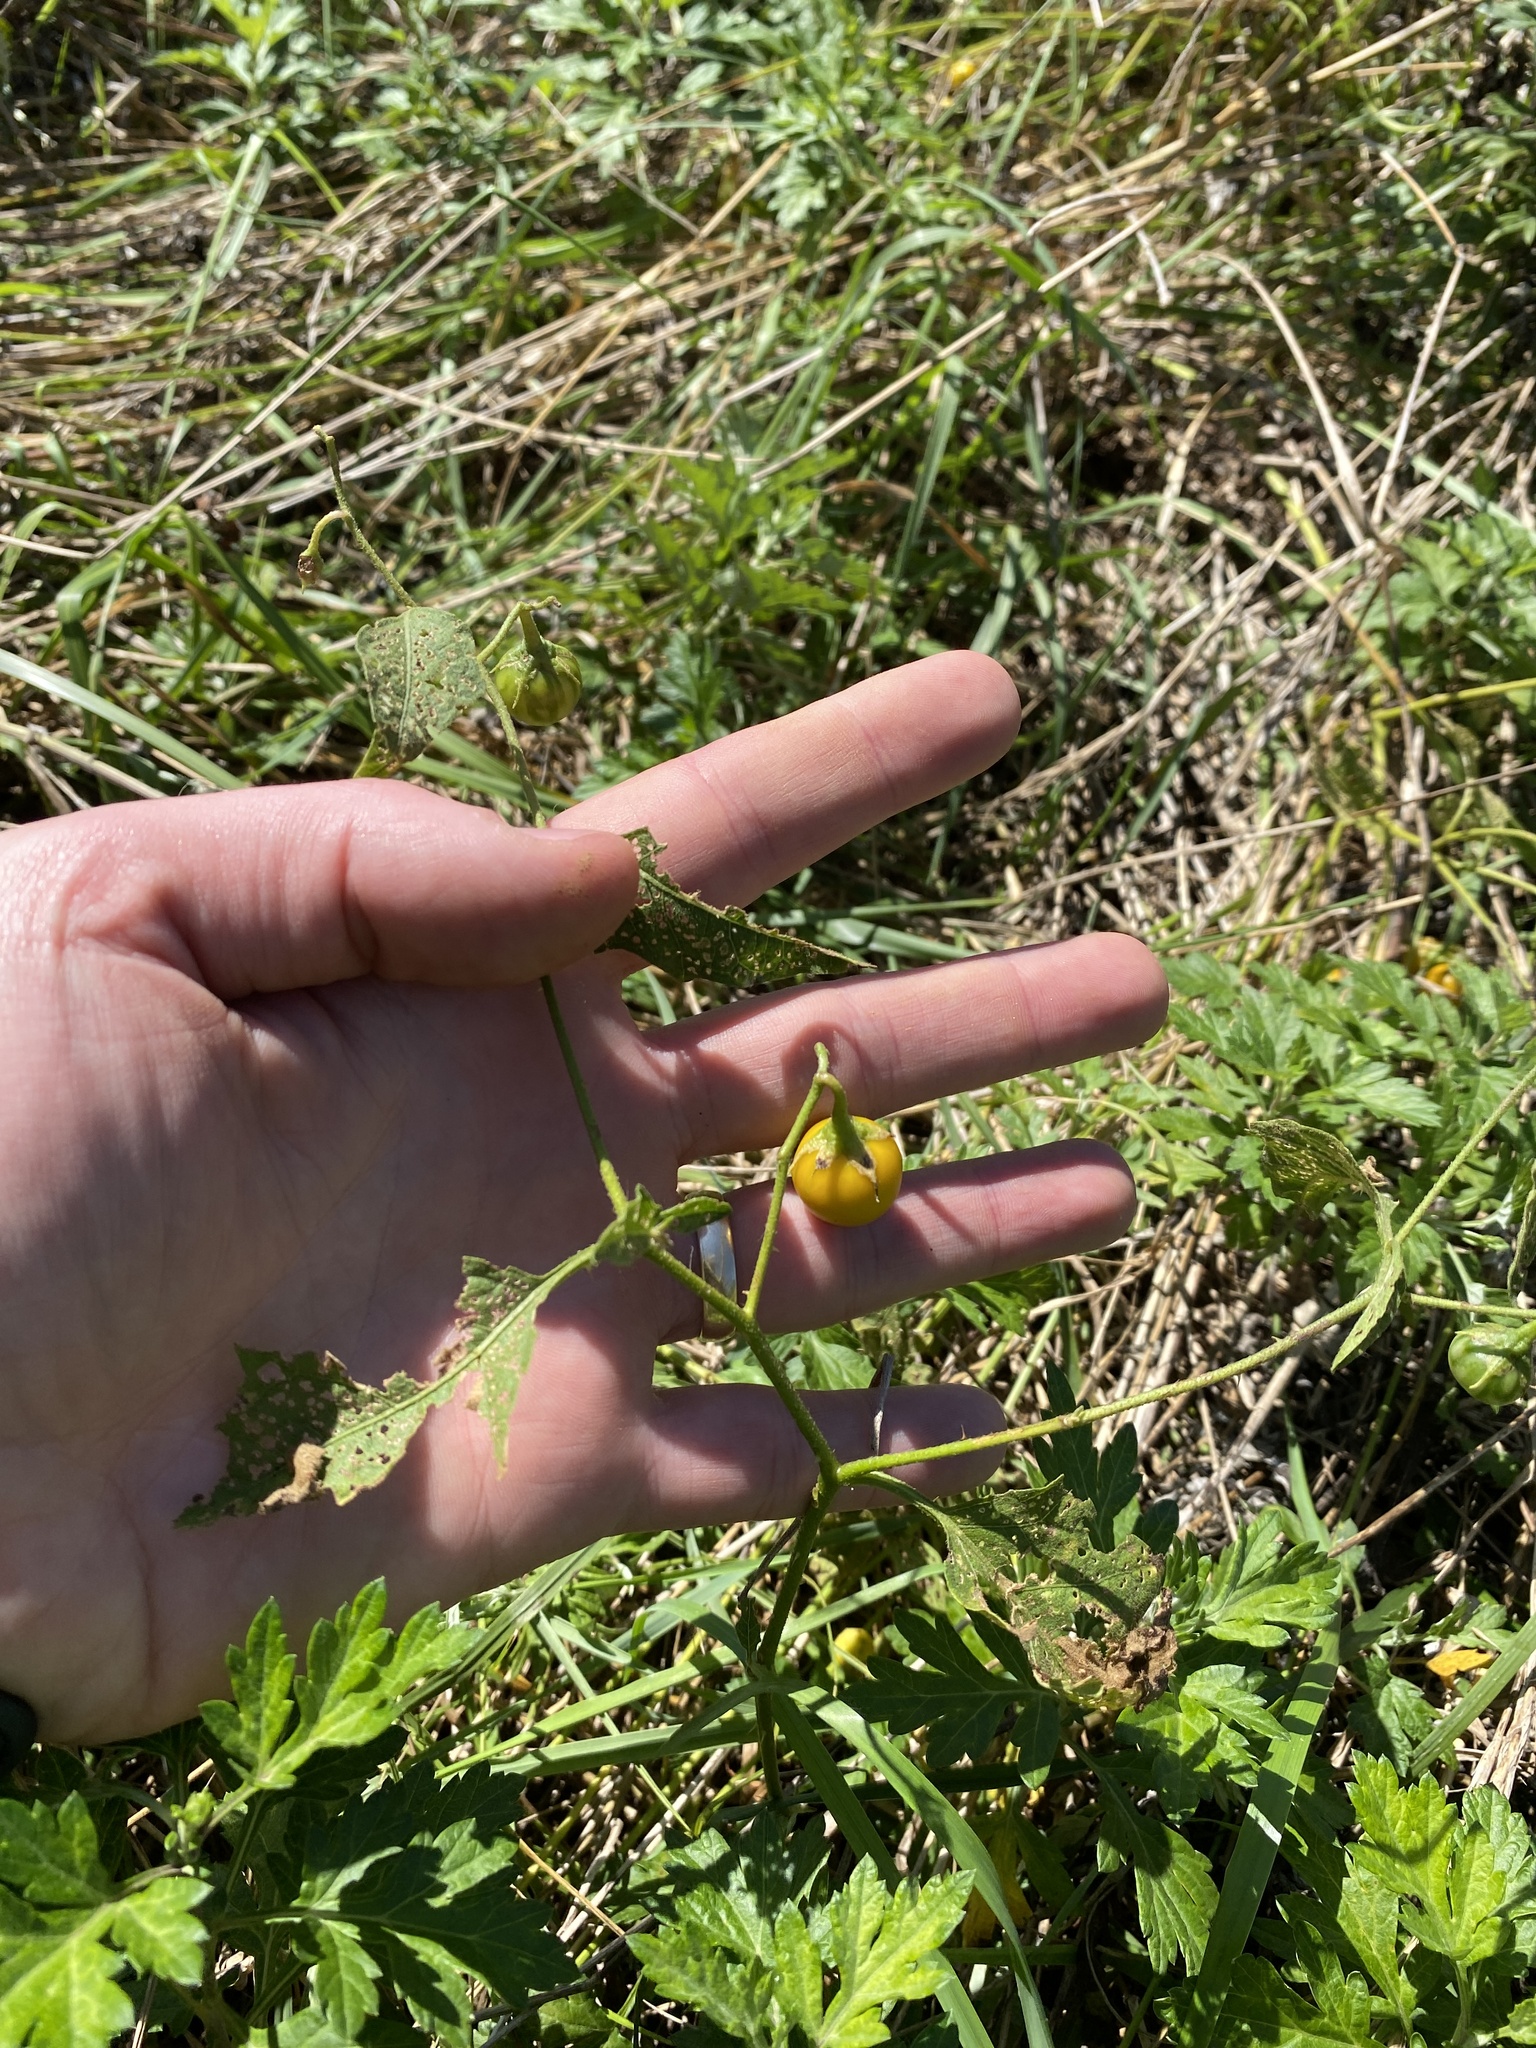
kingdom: Plantae
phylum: Tracheophyta
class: Magnoliopsida
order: Solanales
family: Solanaceae
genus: Solanum
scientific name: Solanum carolinense
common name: Horse-nettle
